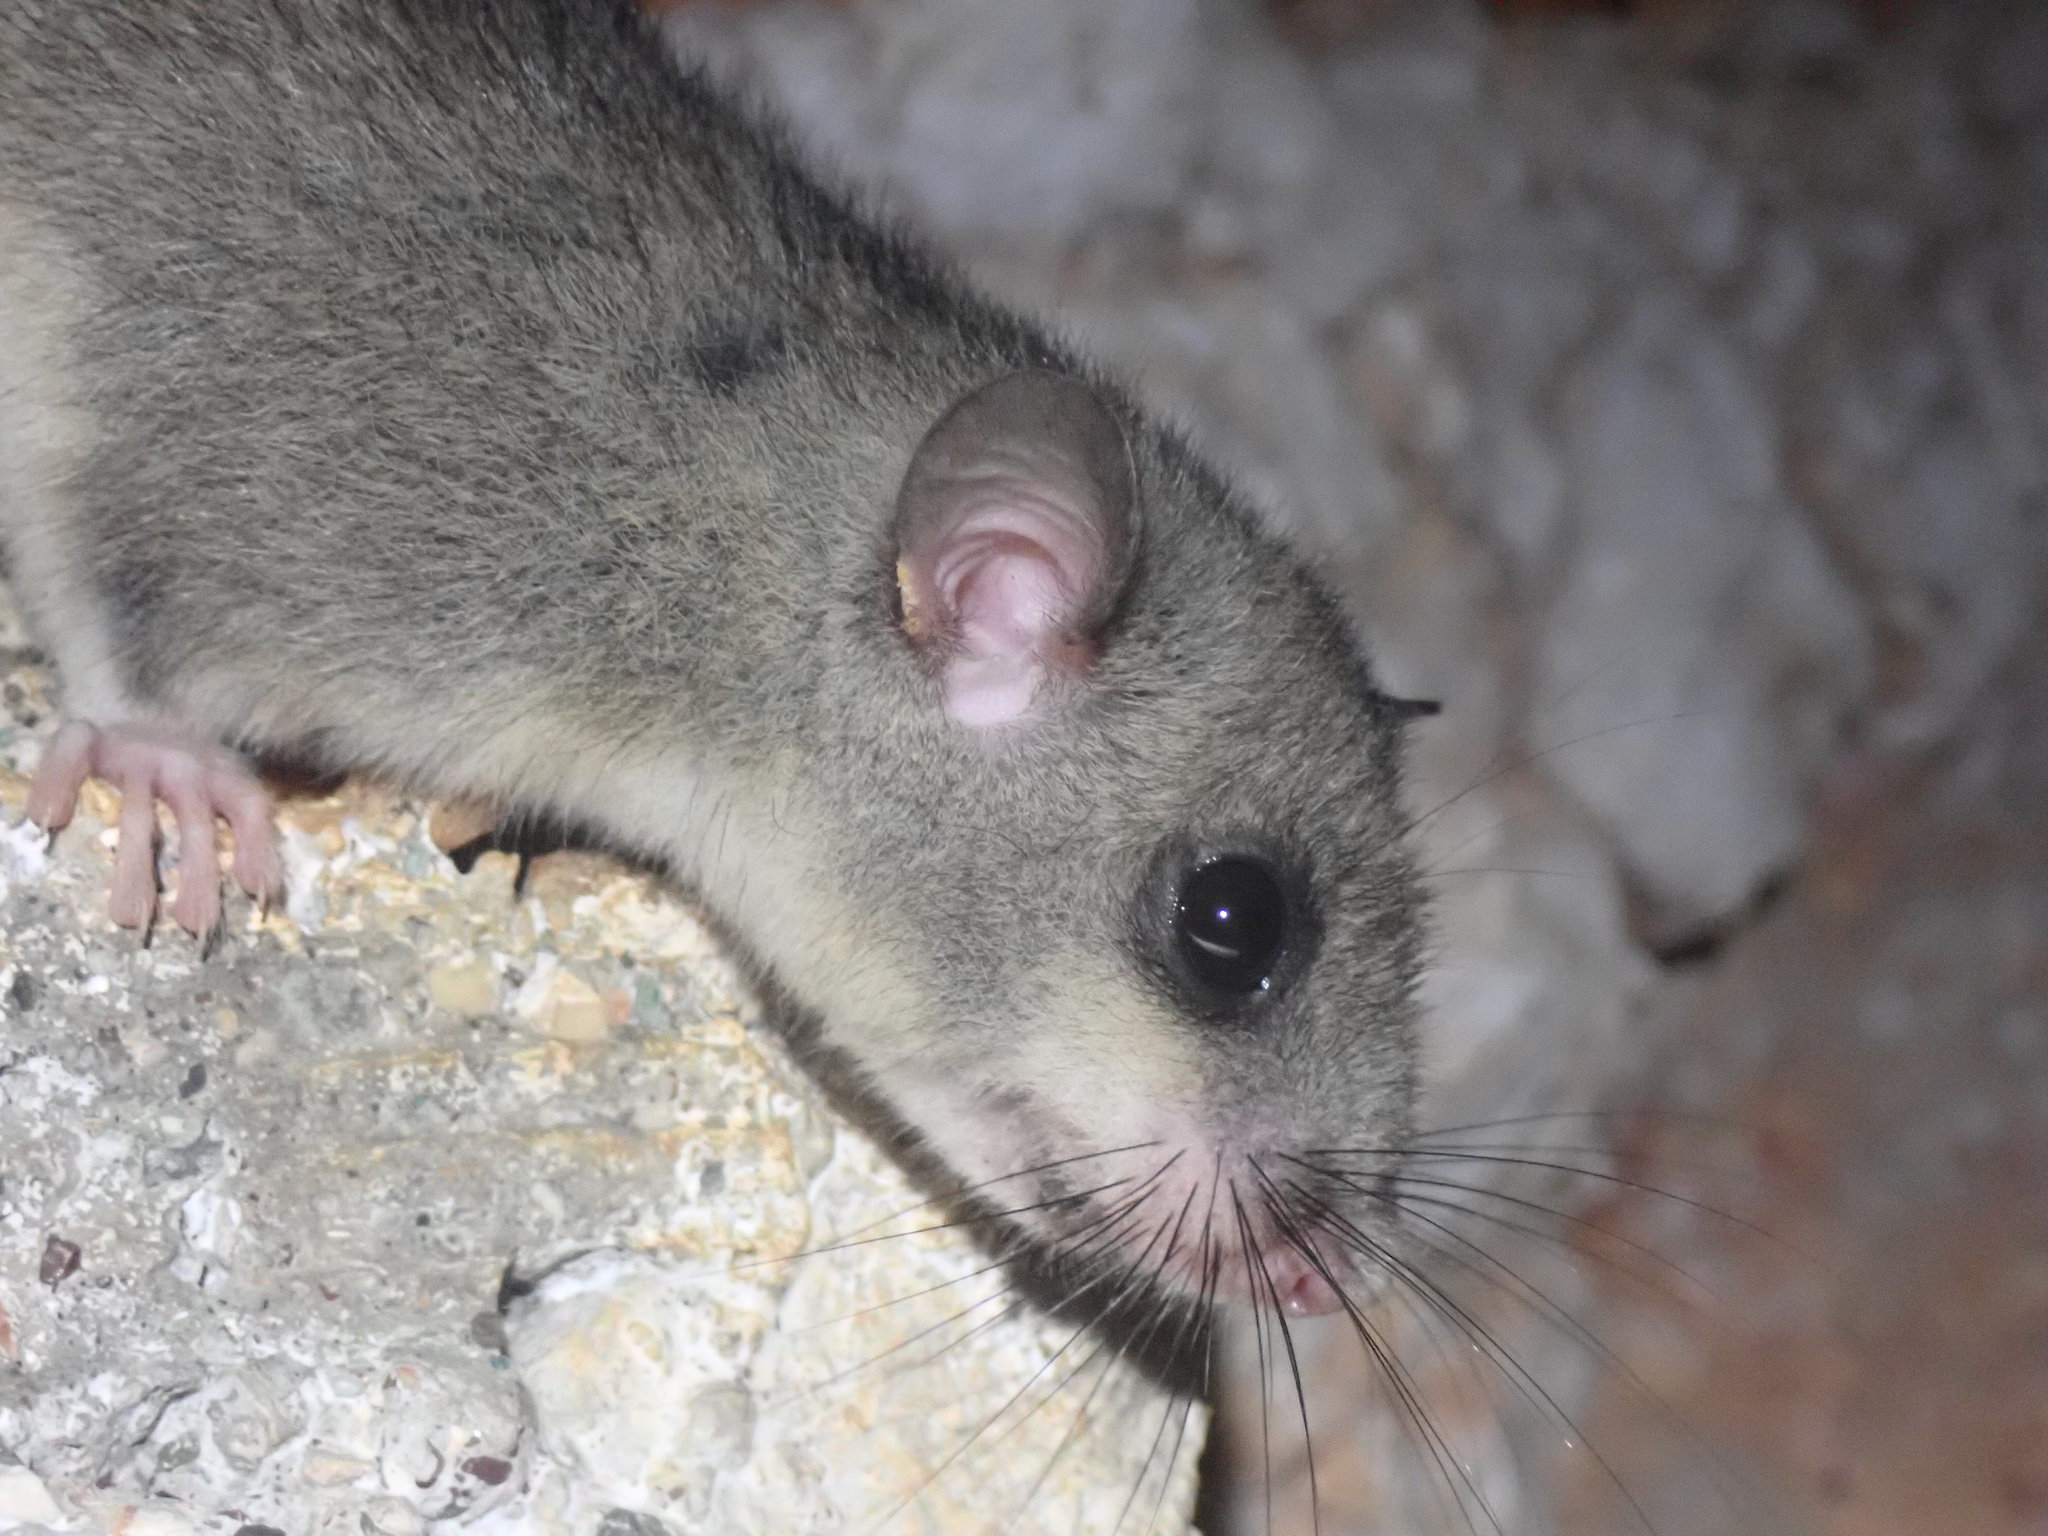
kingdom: Animalia
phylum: Chordata
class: Mammalia
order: Rodentia
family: Gliridae
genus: Glis
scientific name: Glis glis
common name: Fat dormouse
